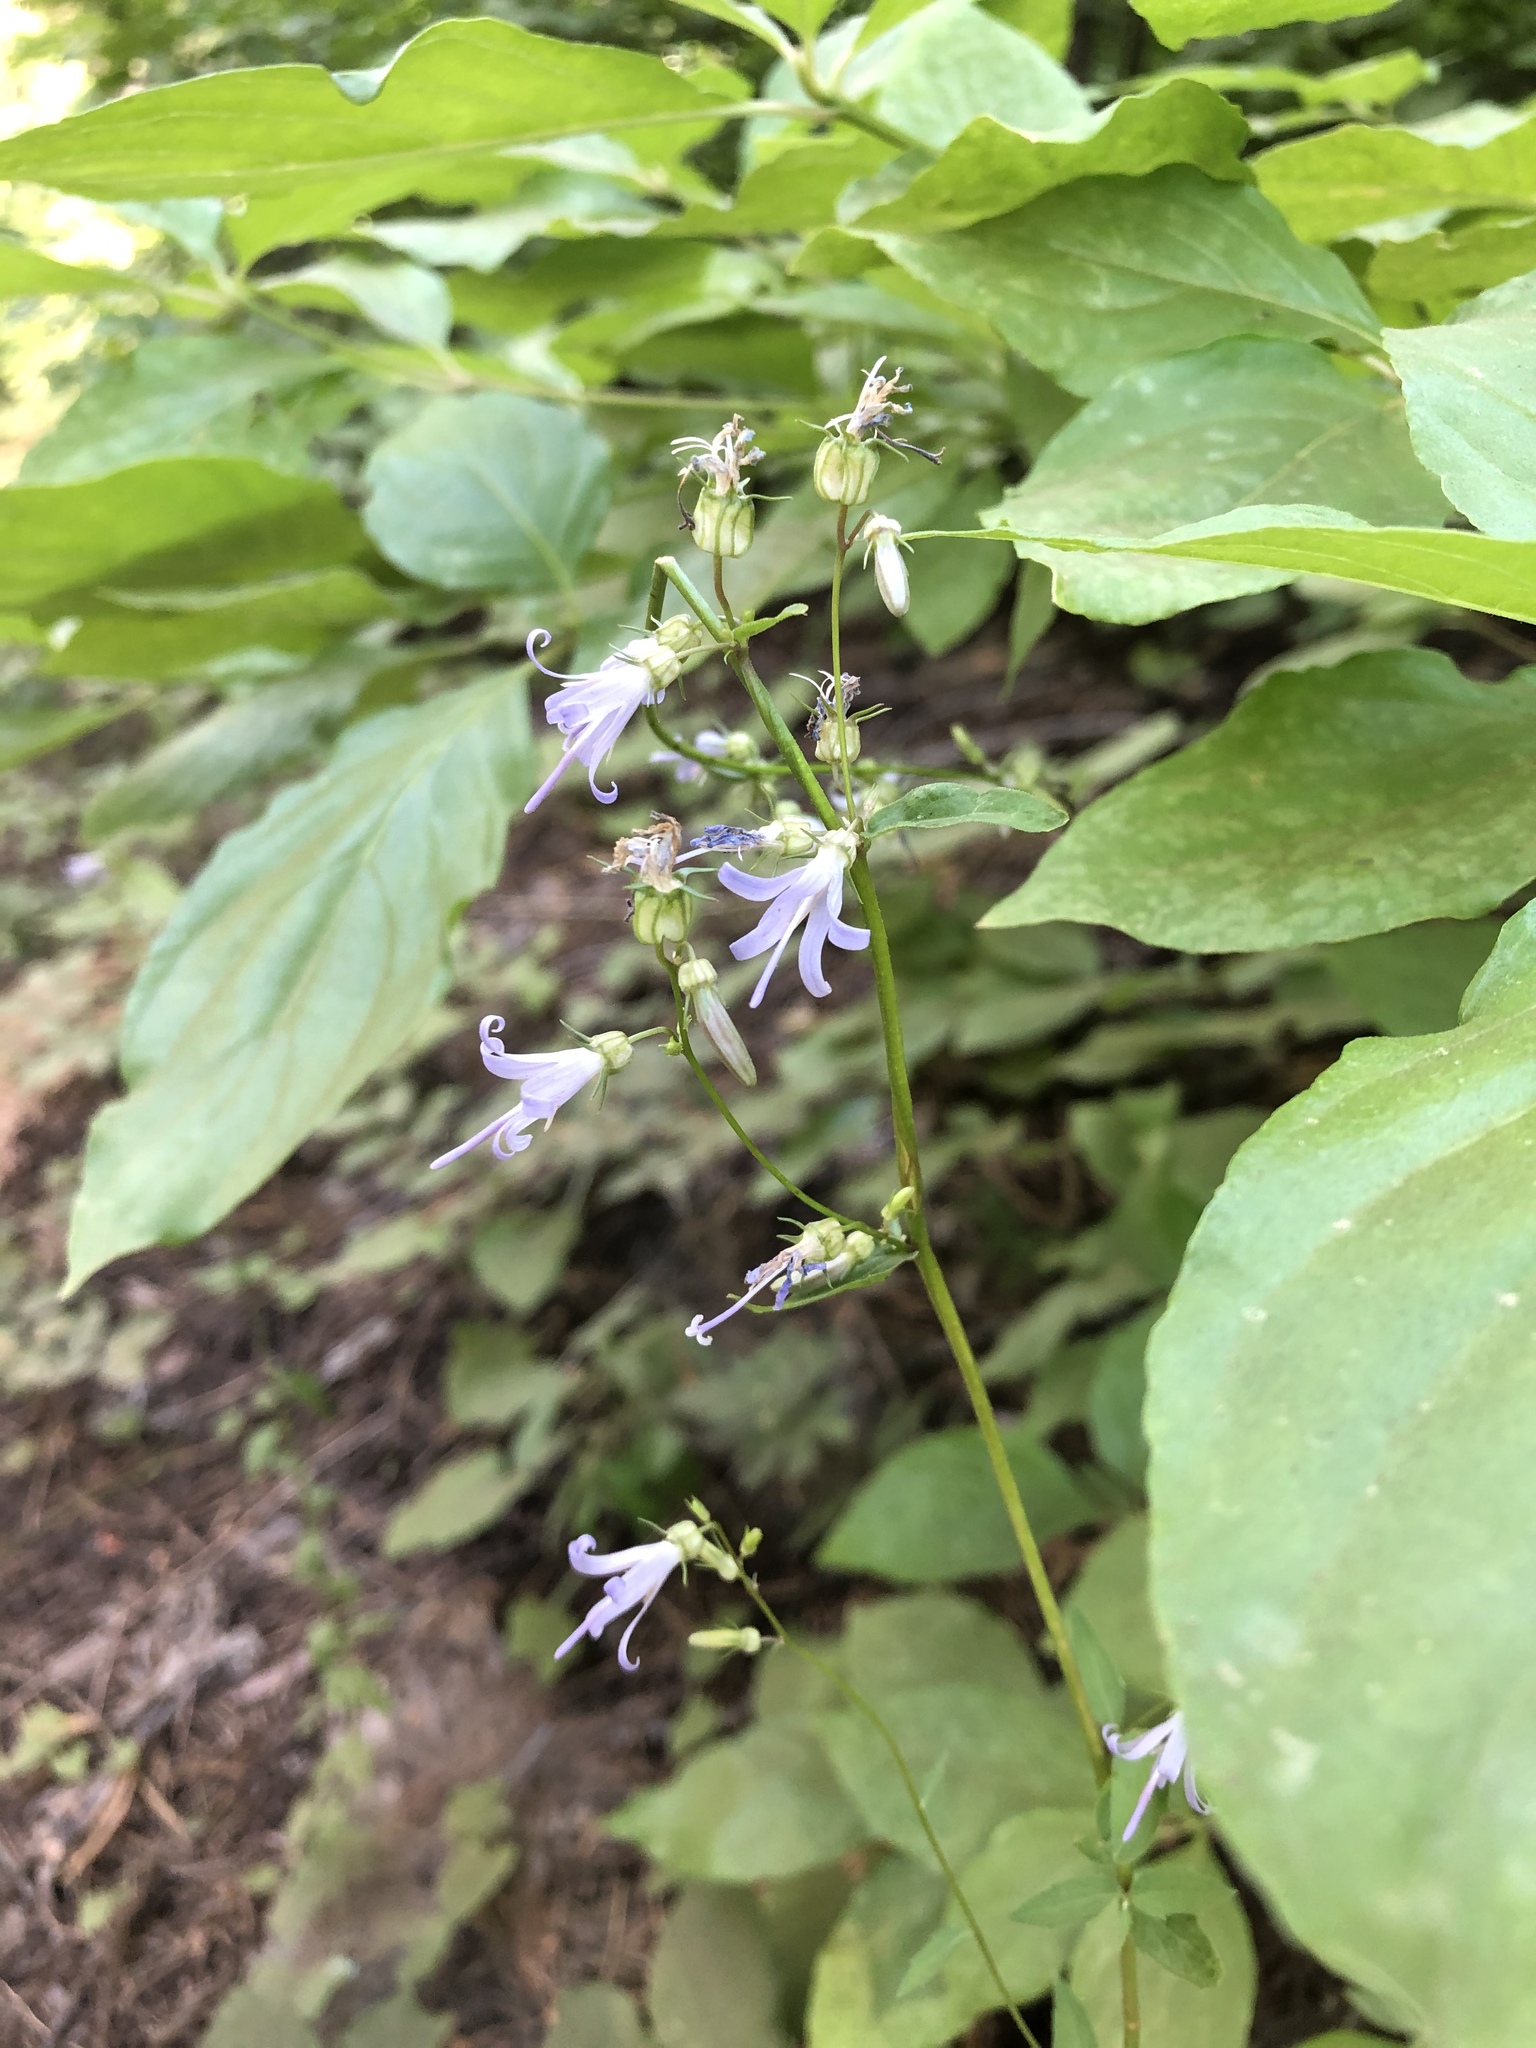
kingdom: Plantae
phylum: Tracheophyta
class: Magnoliopsida
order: Asterales
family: Campanulaceae
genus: Smithiastrum
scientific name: Smithiastrum prenanthoides
